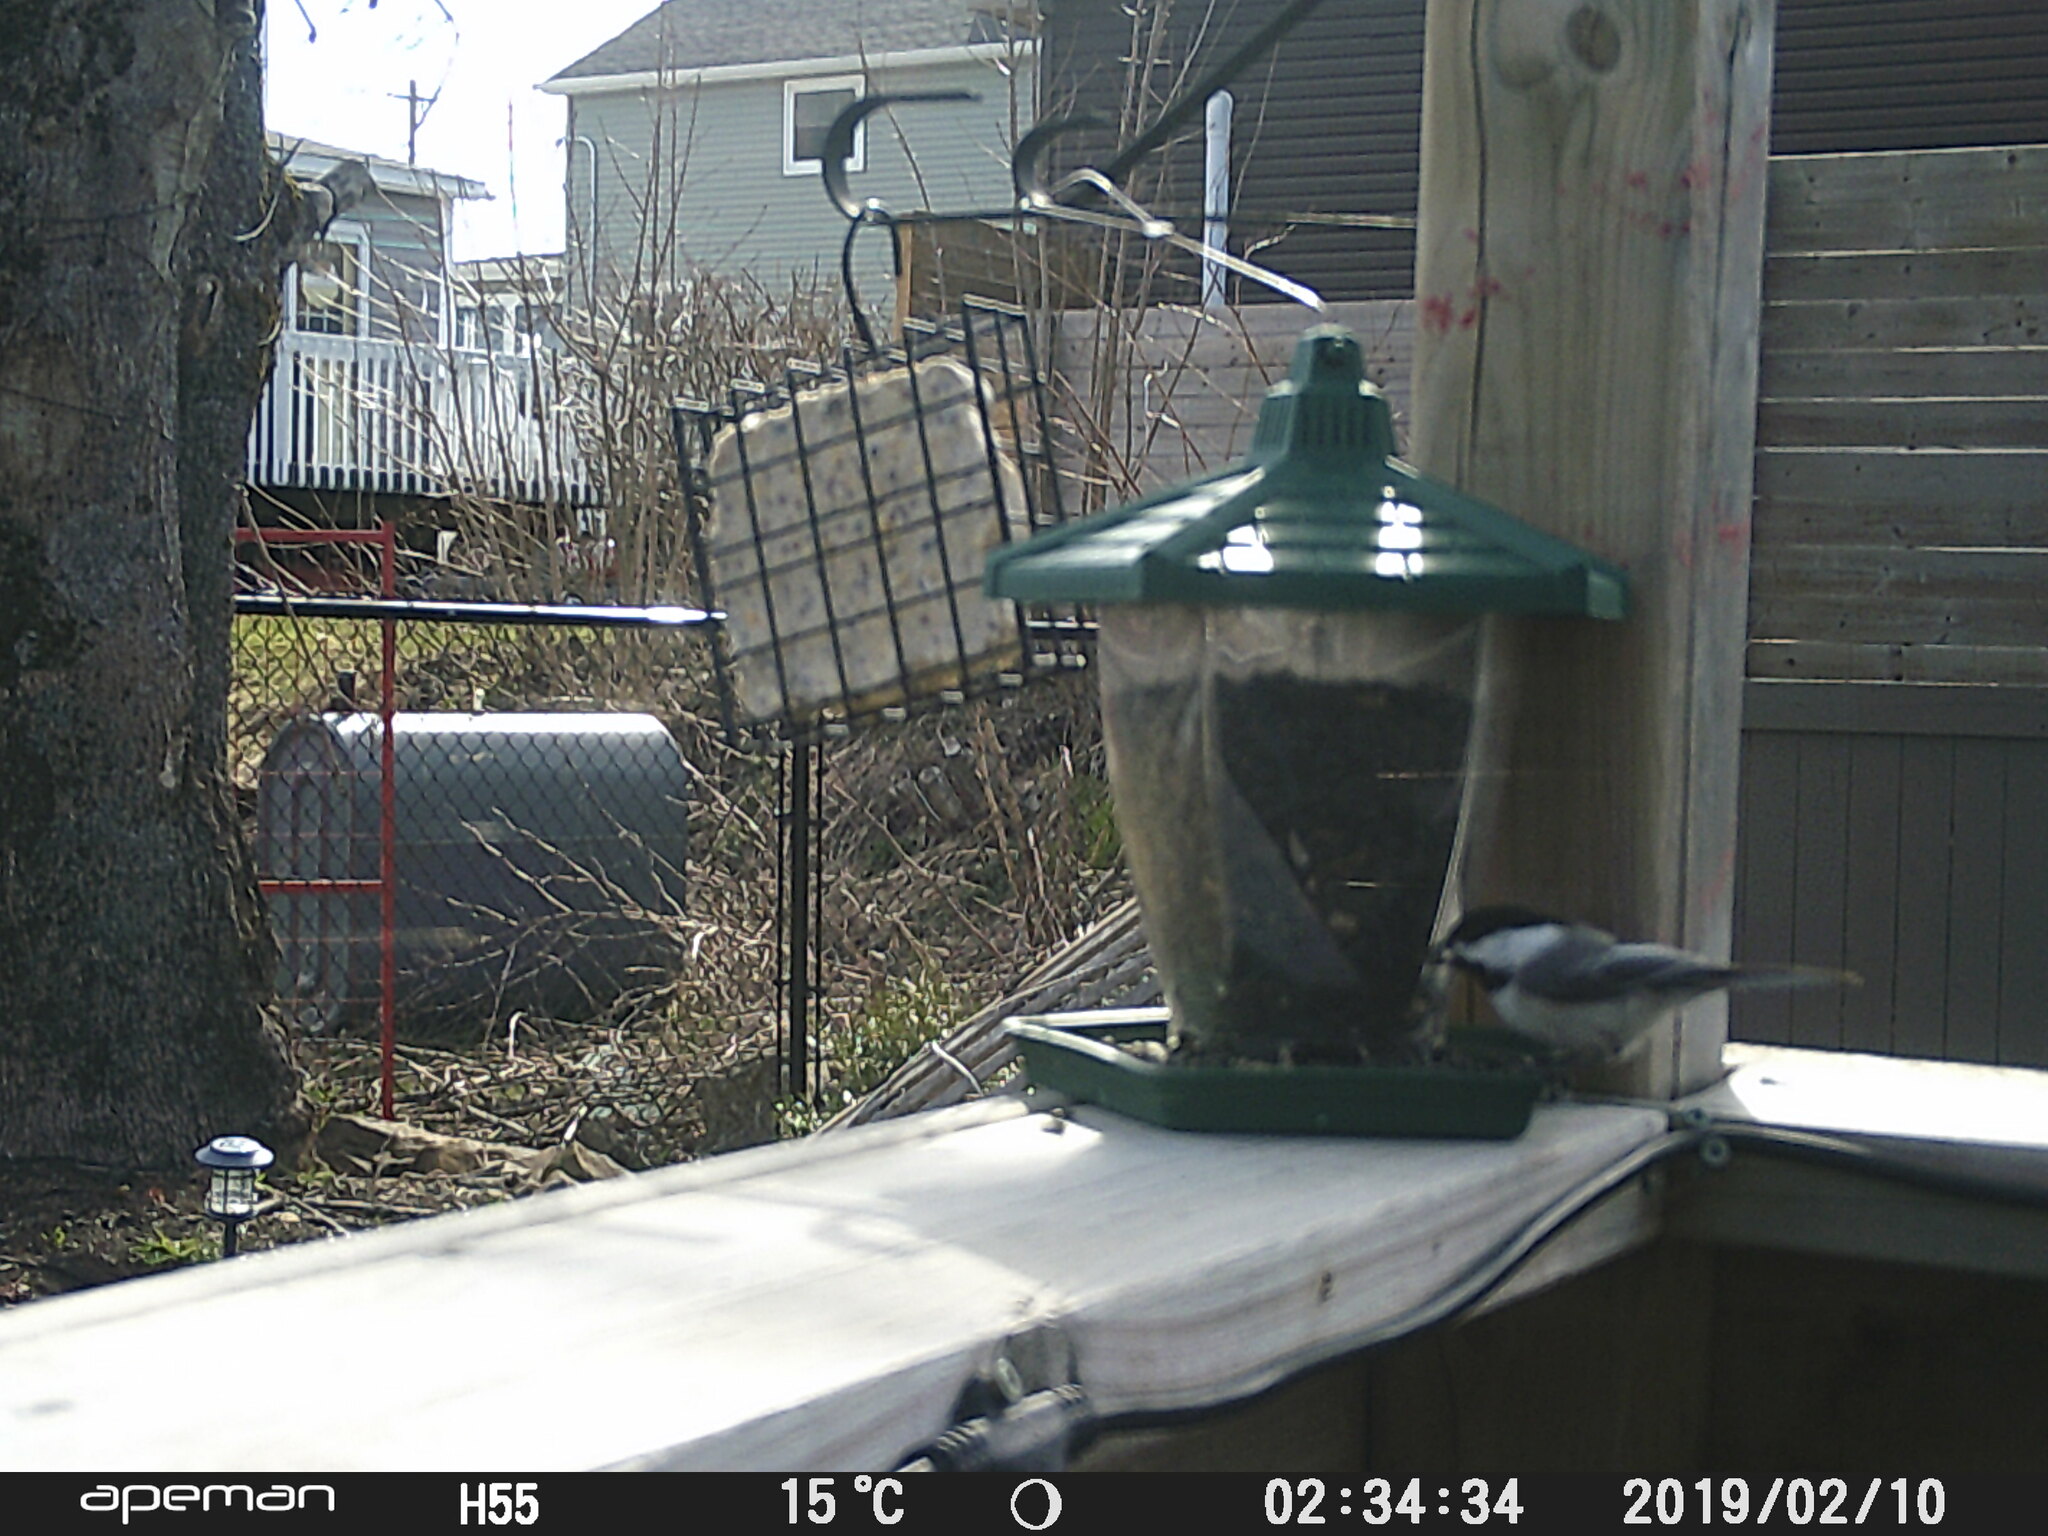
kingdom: Animalia
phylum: Chordata
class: Aves
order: Passeriformes
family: Paridae
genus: Poecile
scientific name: Poecile atricapillus
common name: Black-capped chickadee
